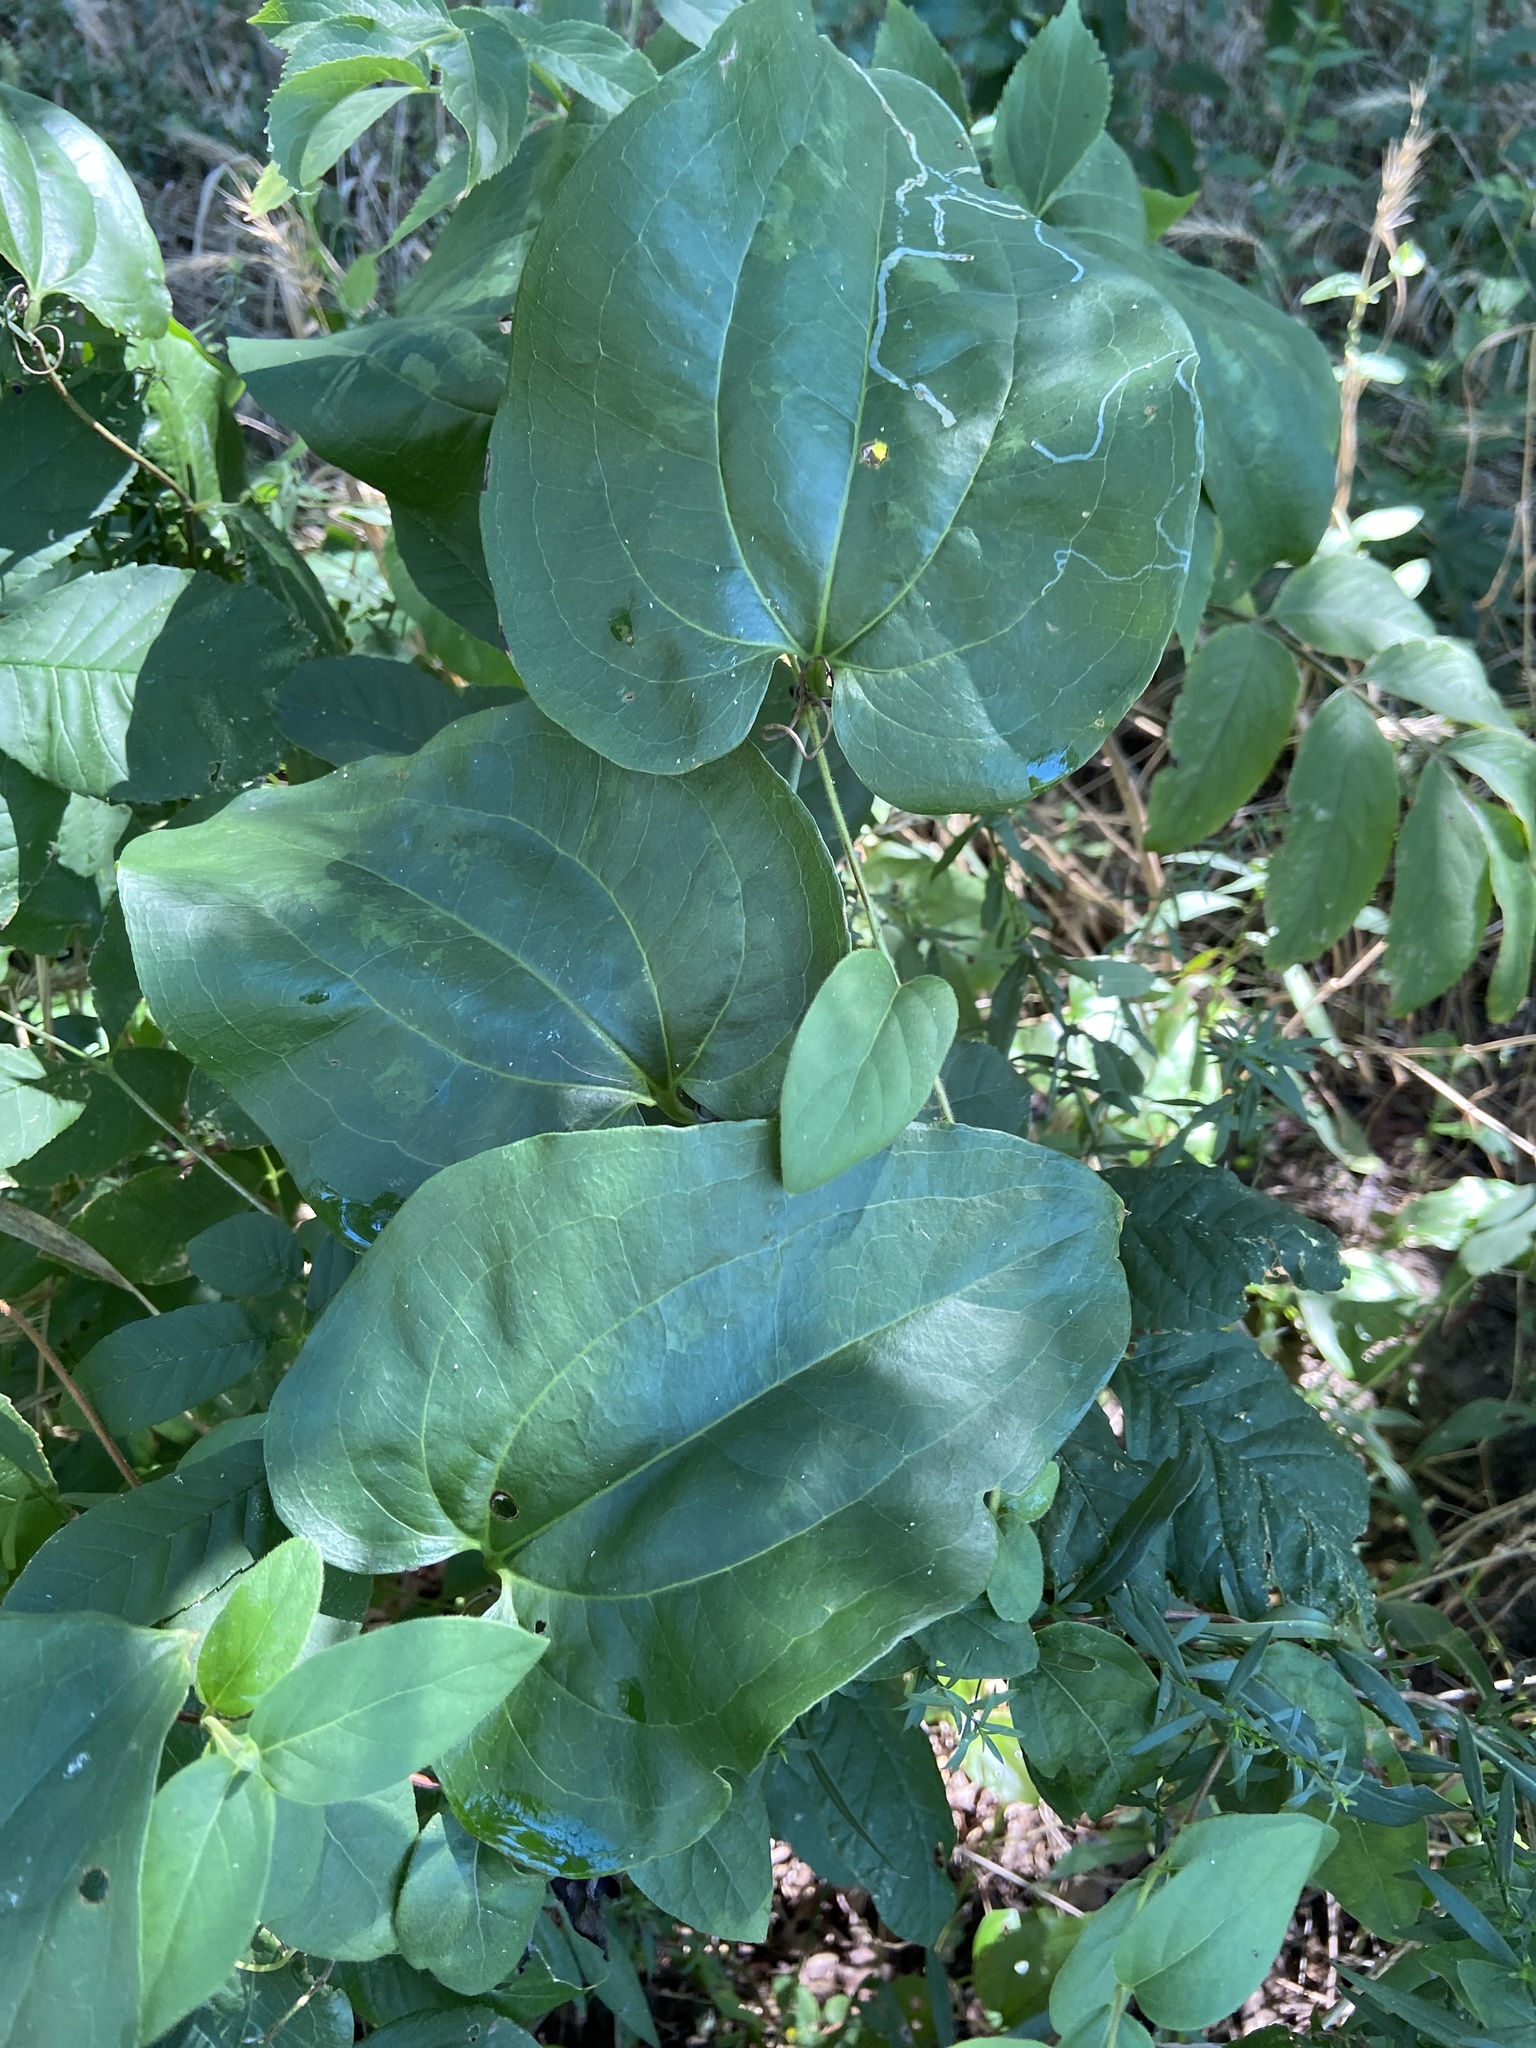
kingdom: Plantae
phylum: Tracheophyta
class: Liliopsida
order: Liliales
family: Smilacaceae
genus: Smilax
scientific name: Smilax tamnoides
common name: Hellfetter
